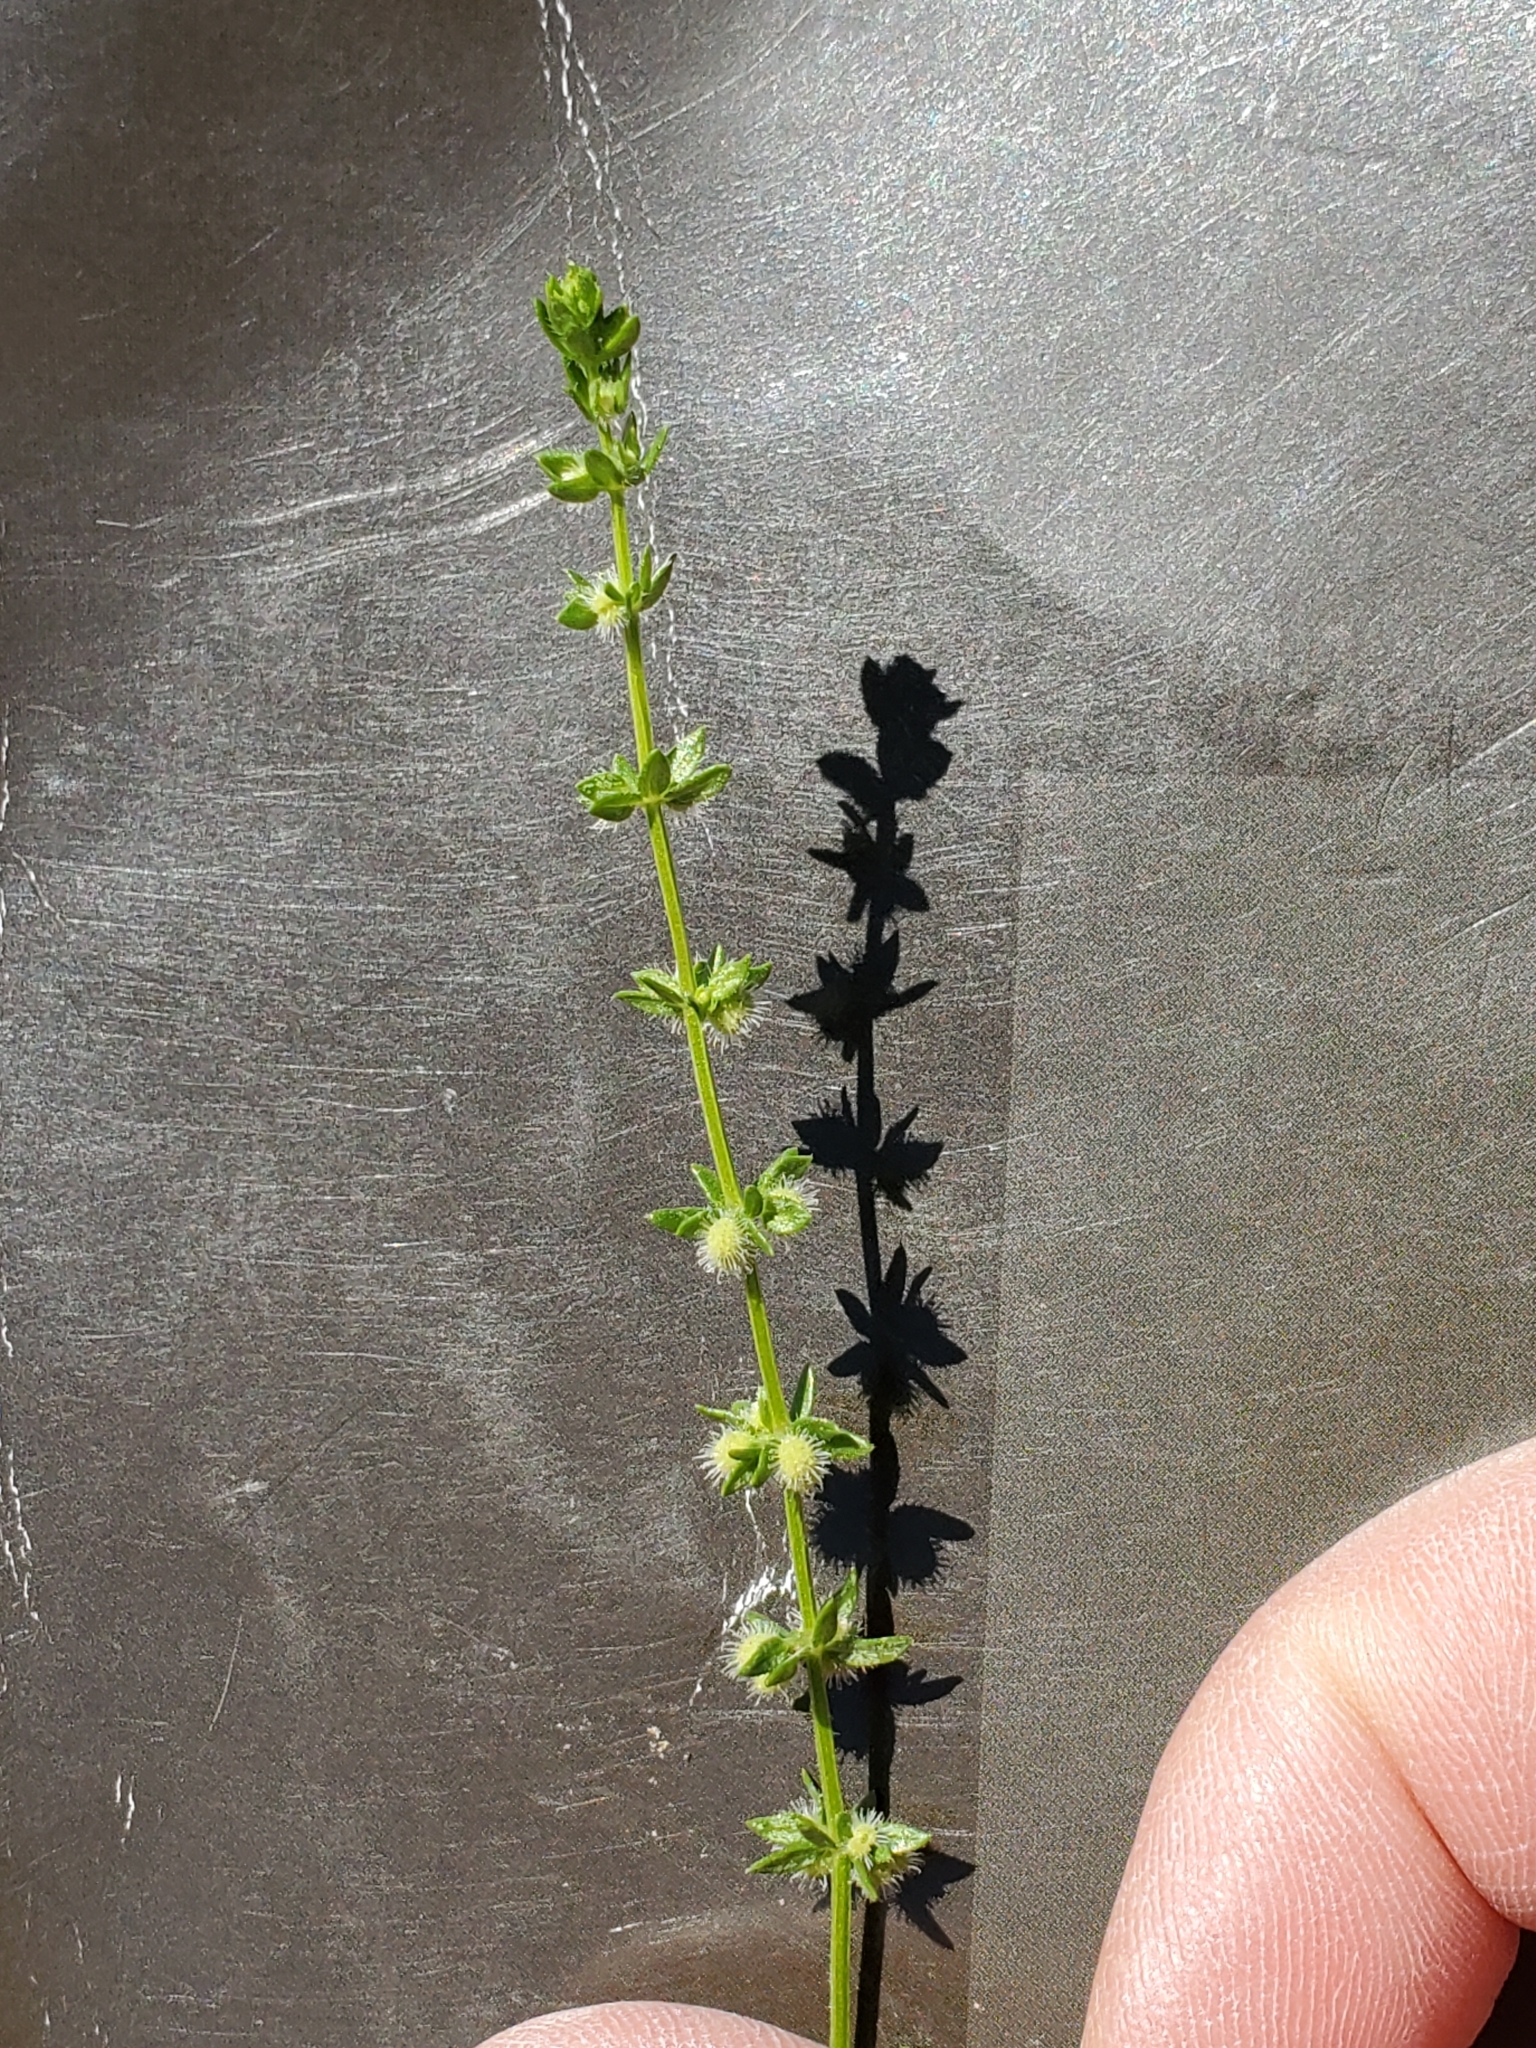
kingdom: Plantae
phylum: Tracheophyta
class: Magnoliopsida
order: Gentianales
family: Rubiaceae
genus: Galium
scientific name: Galium virgatum
